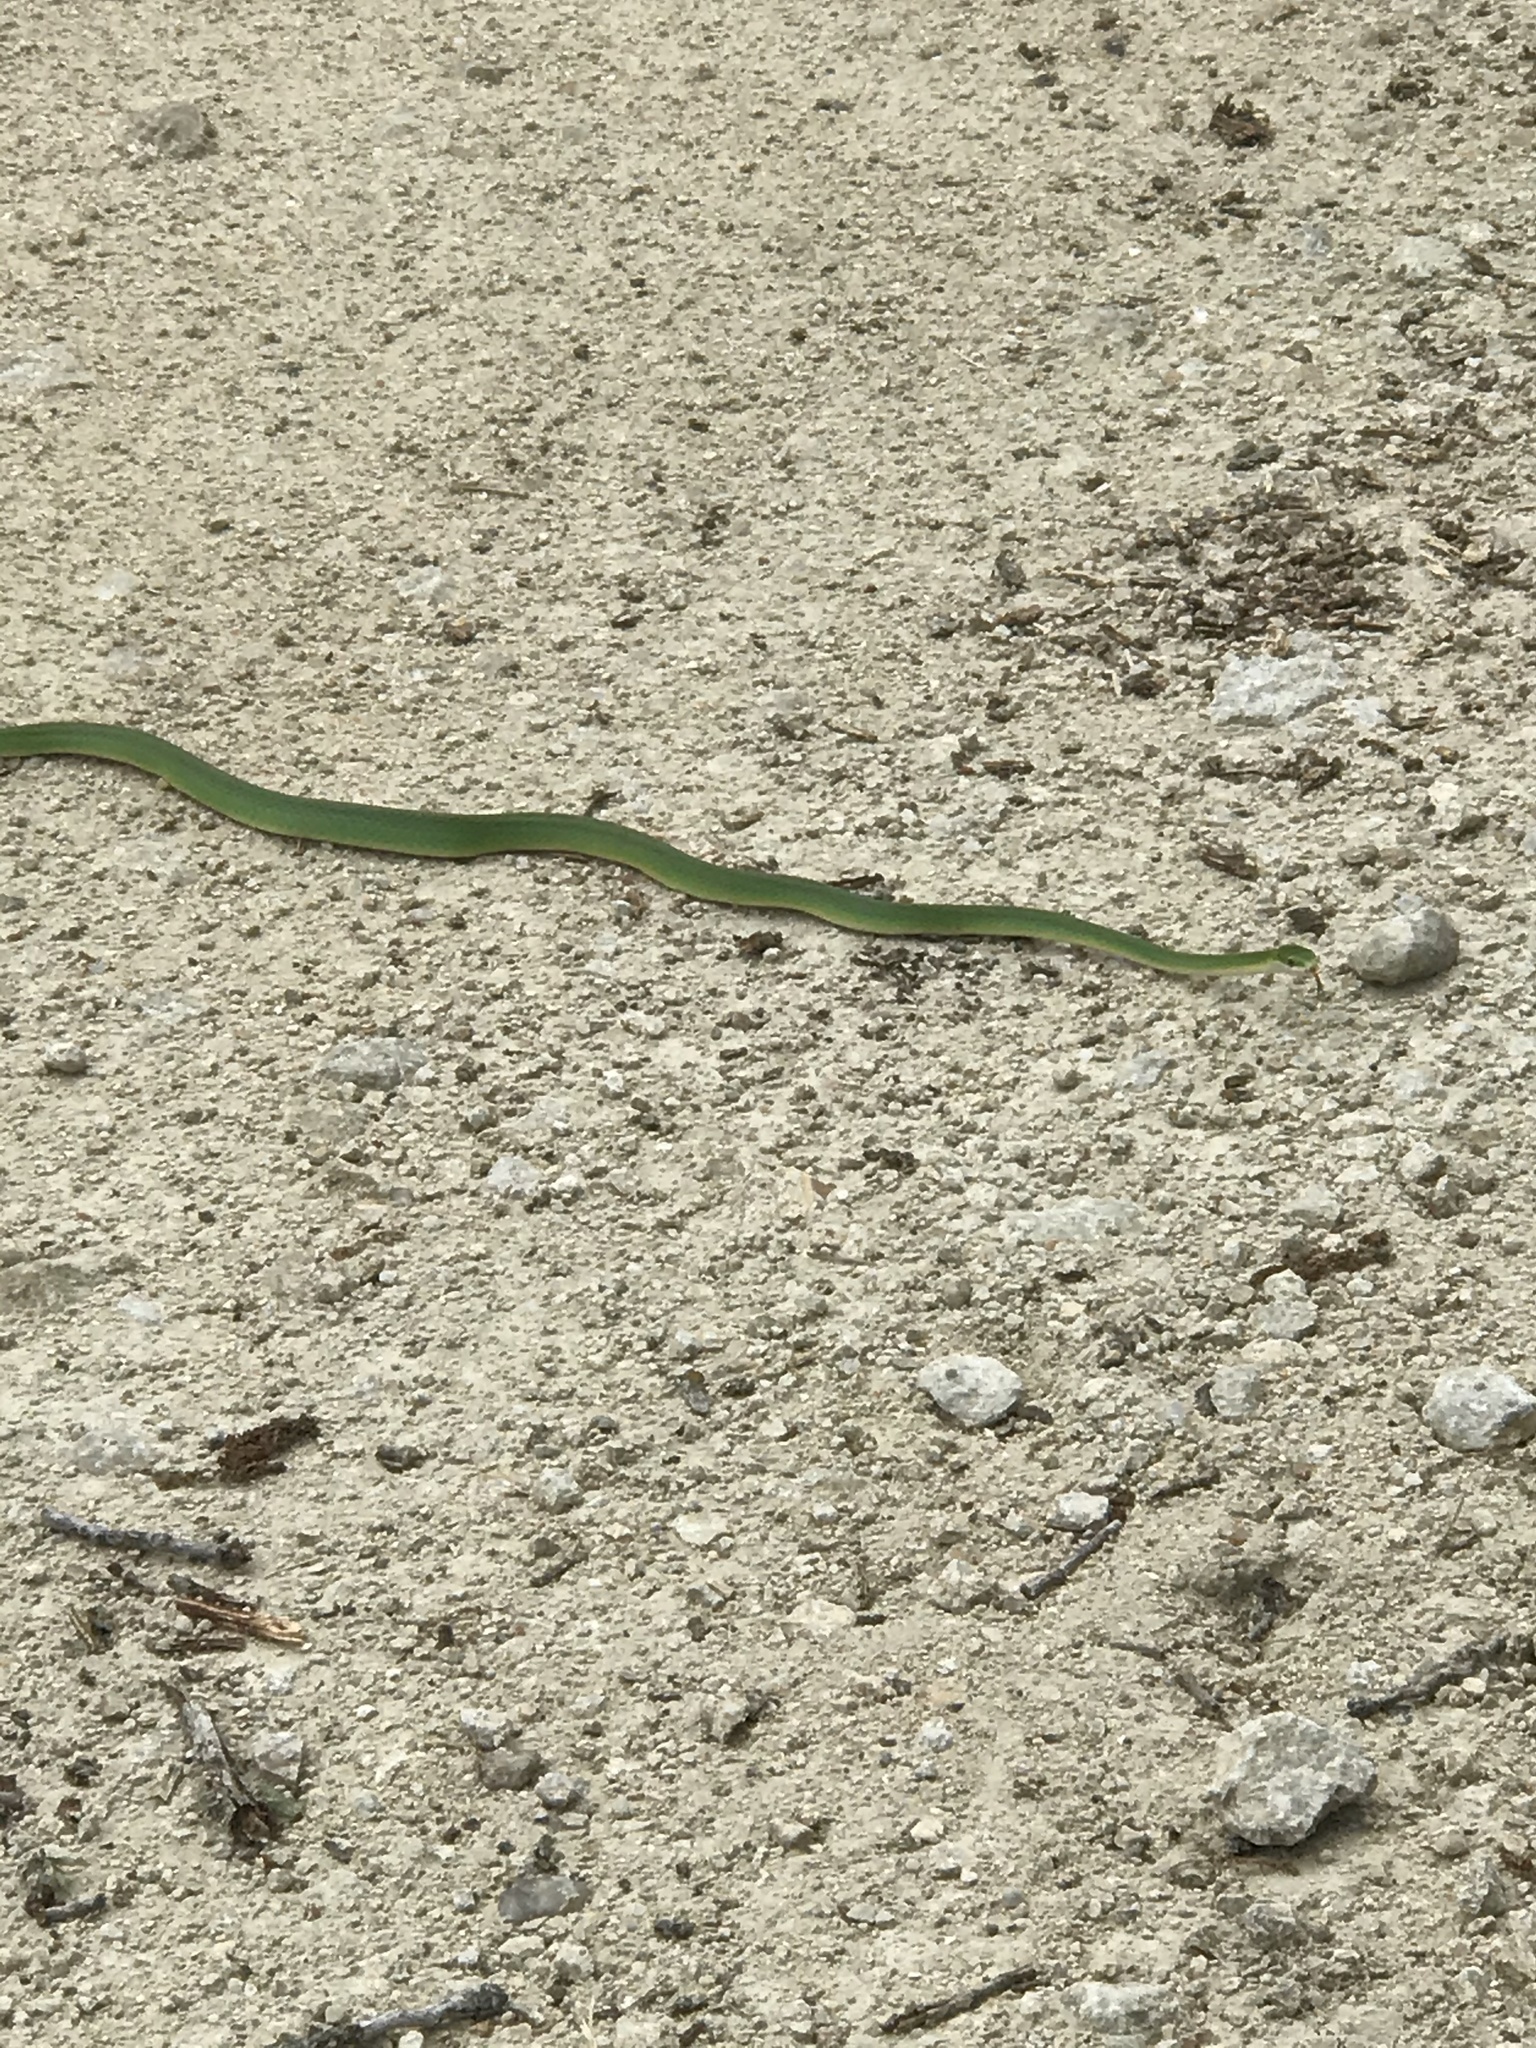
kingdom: Animalia
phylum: Chordata
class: Squamata
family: Colubridae
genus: Opheodrys
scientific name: Opheodrys aestivus
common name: Rough greensnake
